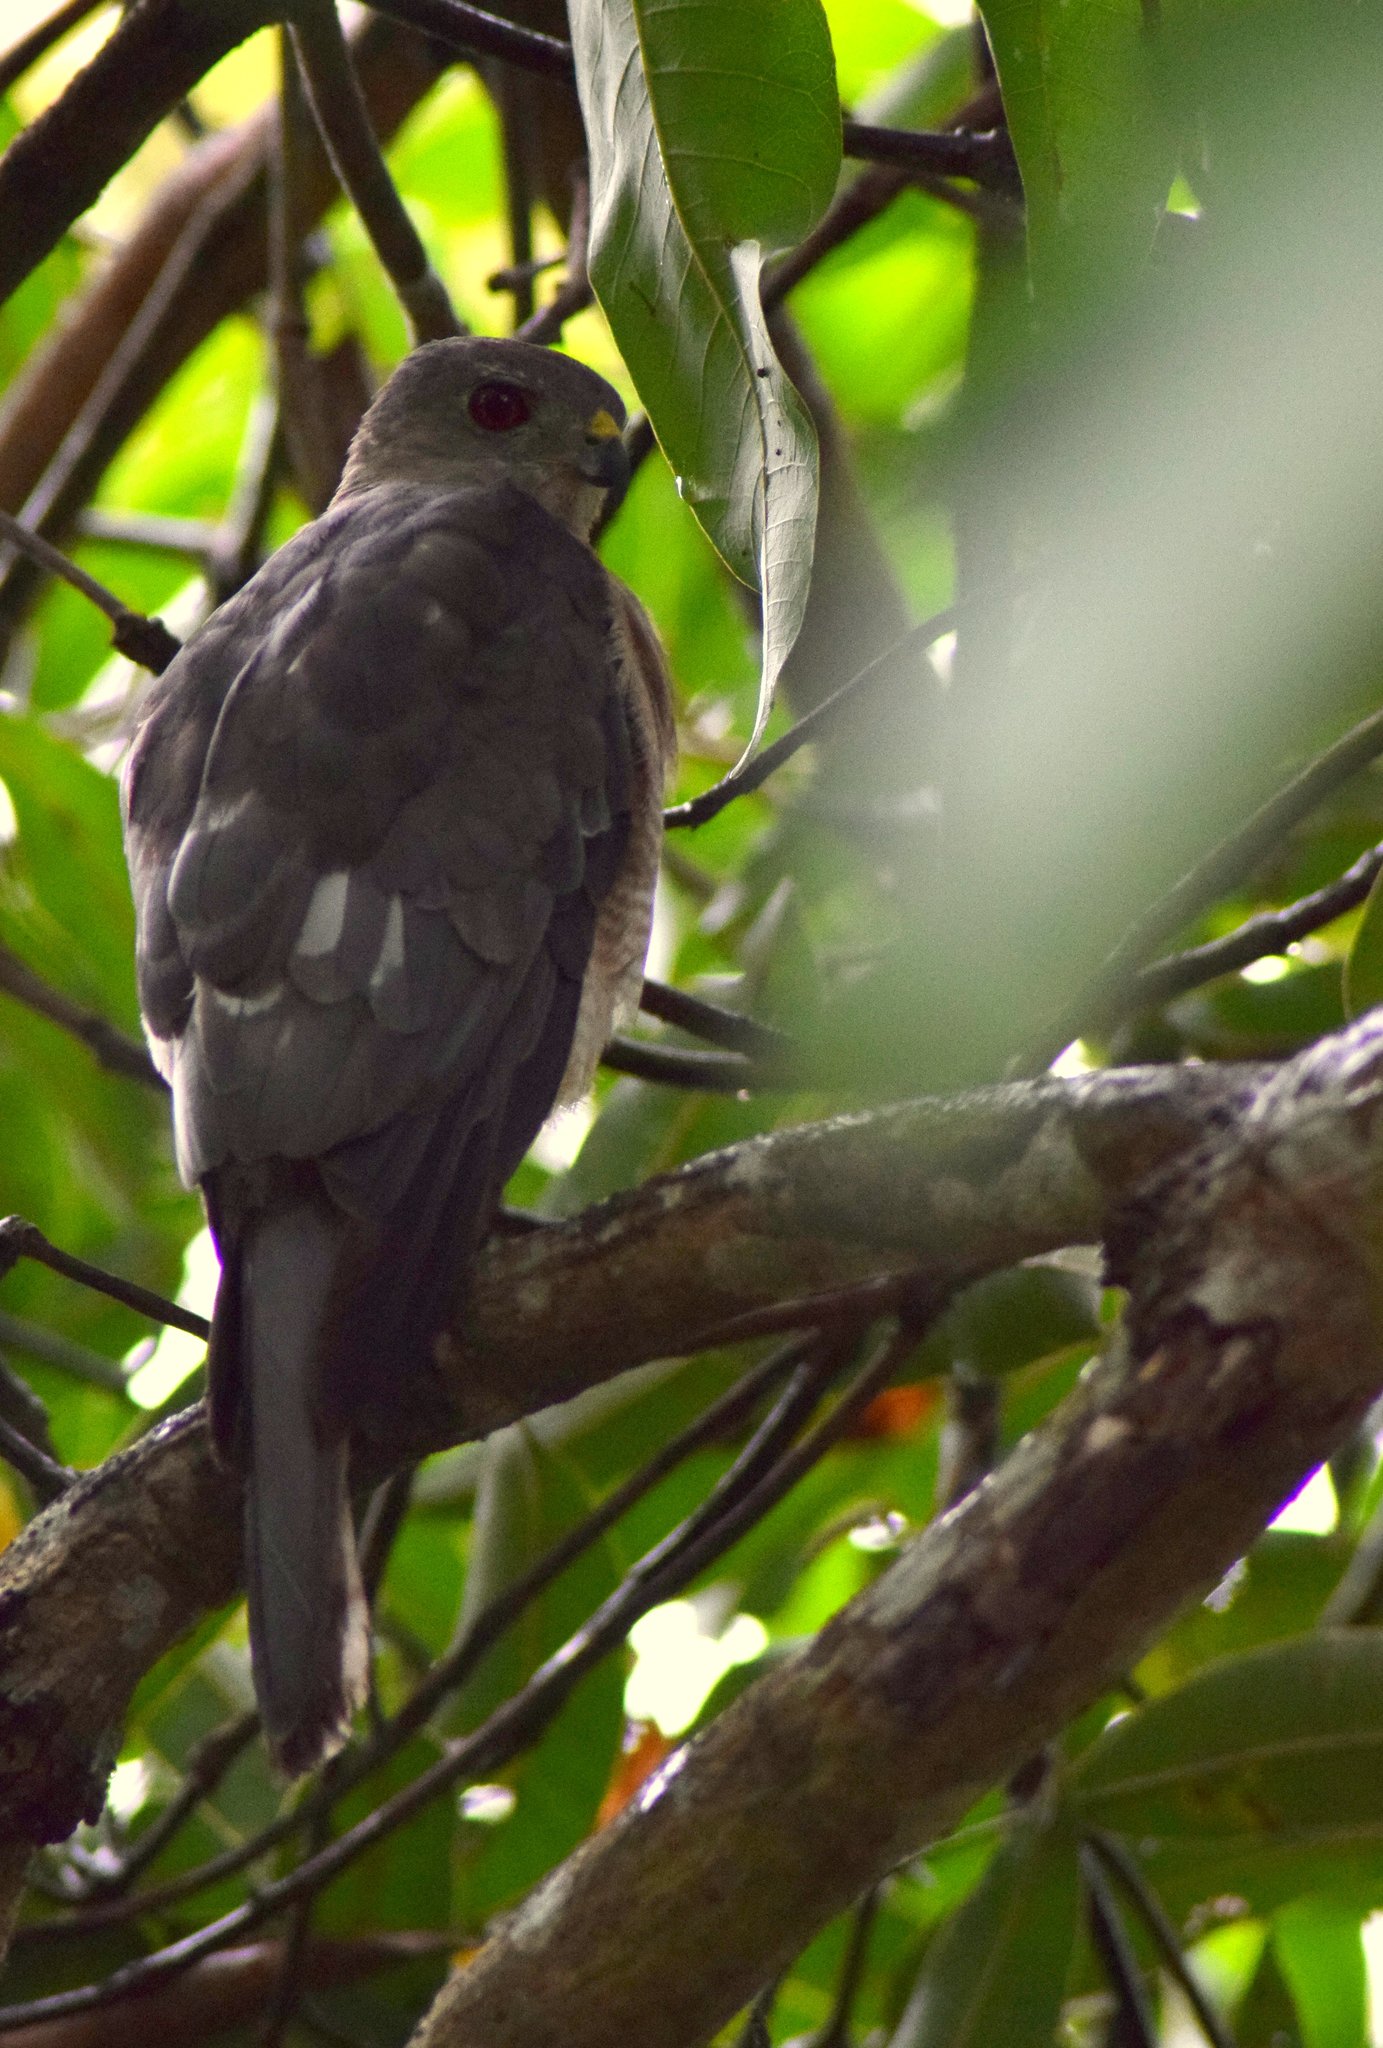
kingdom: Animalia
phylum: Chordata
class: Aves
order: Accipitriformes
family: Accipitridae
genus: Accipiter
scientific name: Accipiter badius
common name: Shikra
